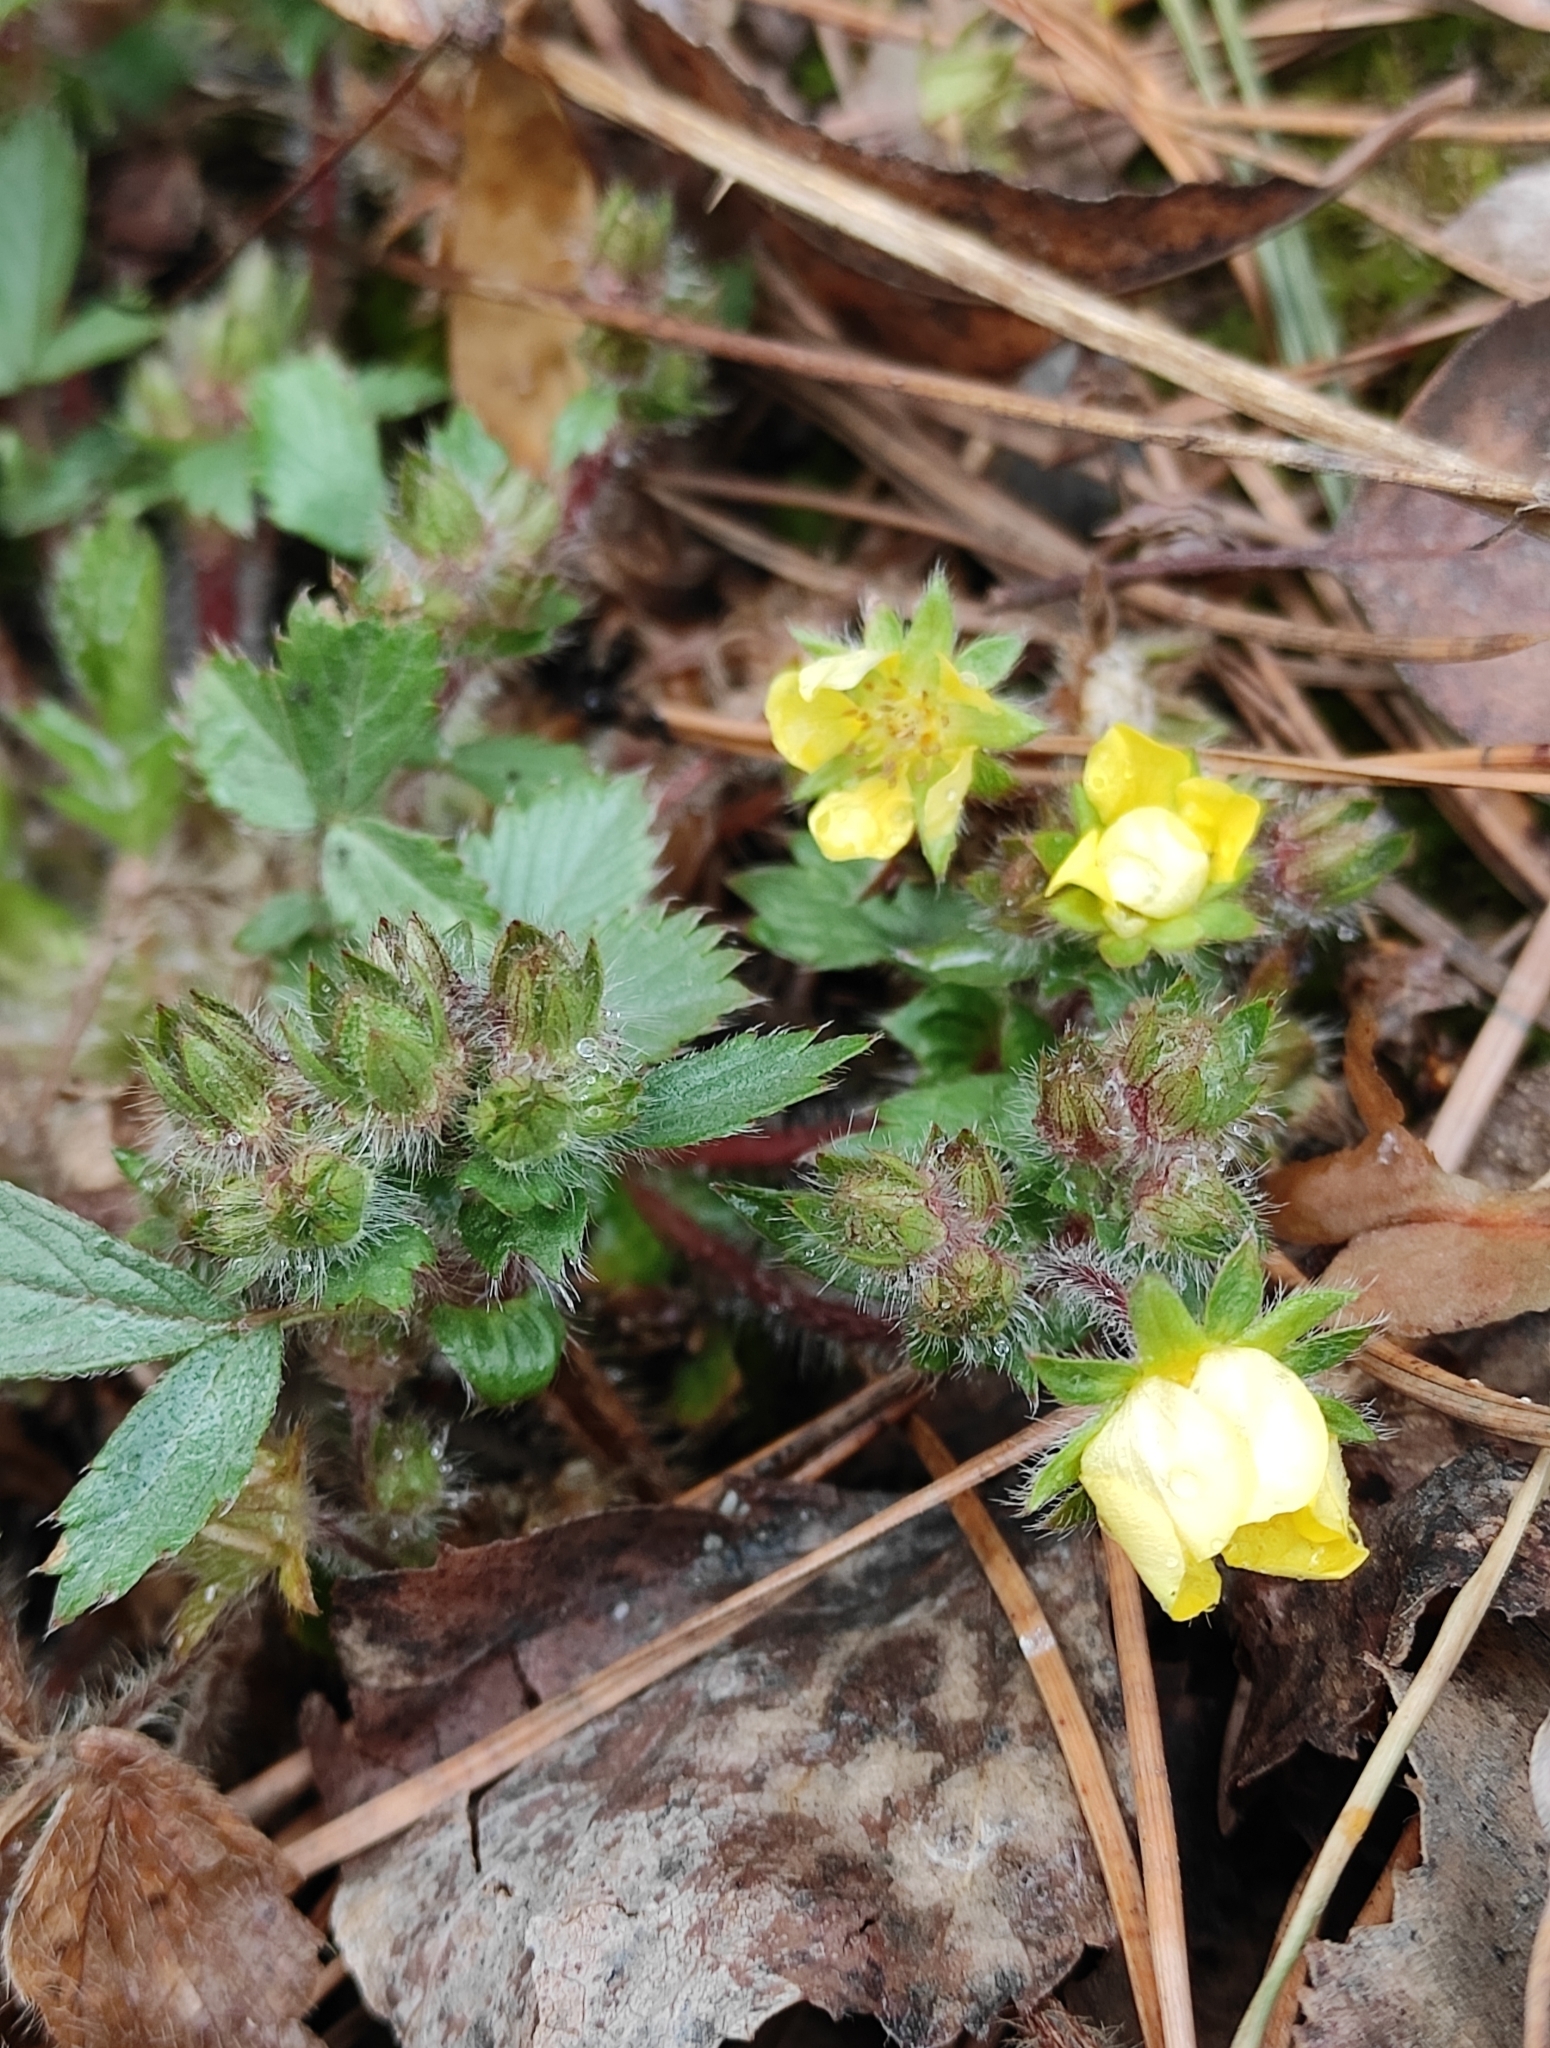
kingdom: Plantae
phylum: Tracheophyta
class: Magnoliopsida
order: Rosales
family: Rosaceae
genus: Potentilla
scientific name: Potentilla fragarioides
